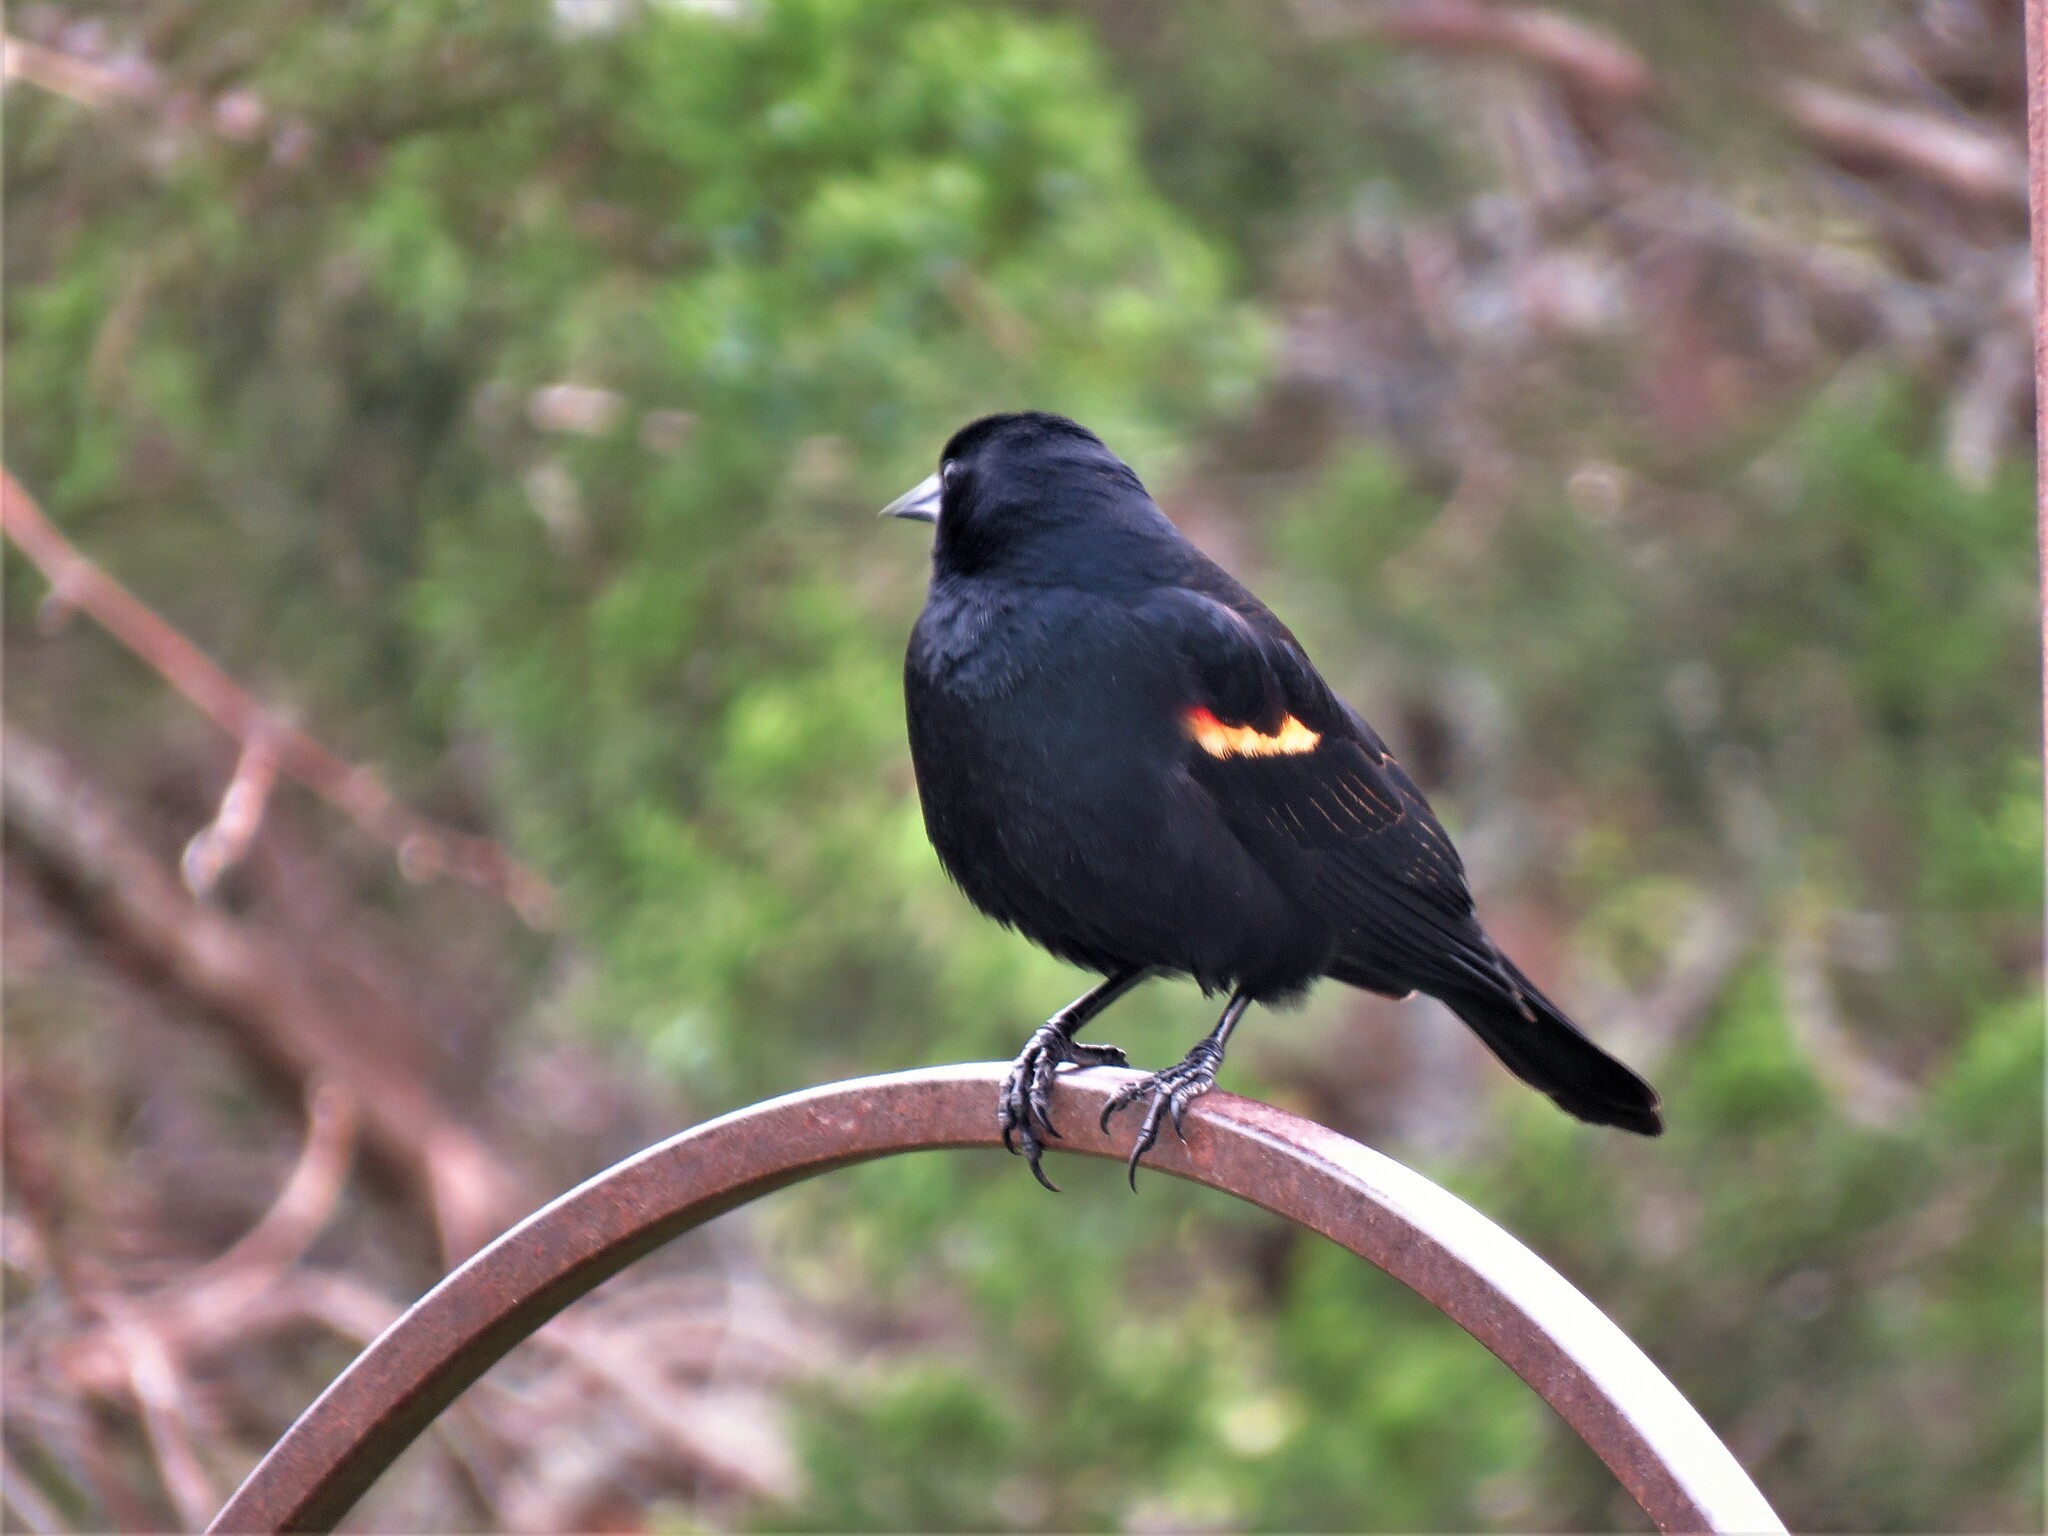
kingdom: Animalia
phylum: Chordata
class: Aves
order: Passeriformes
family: Icteridae
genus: Agelaius
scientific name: Agelaius phoeniceus
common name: Red-winged blackbird
